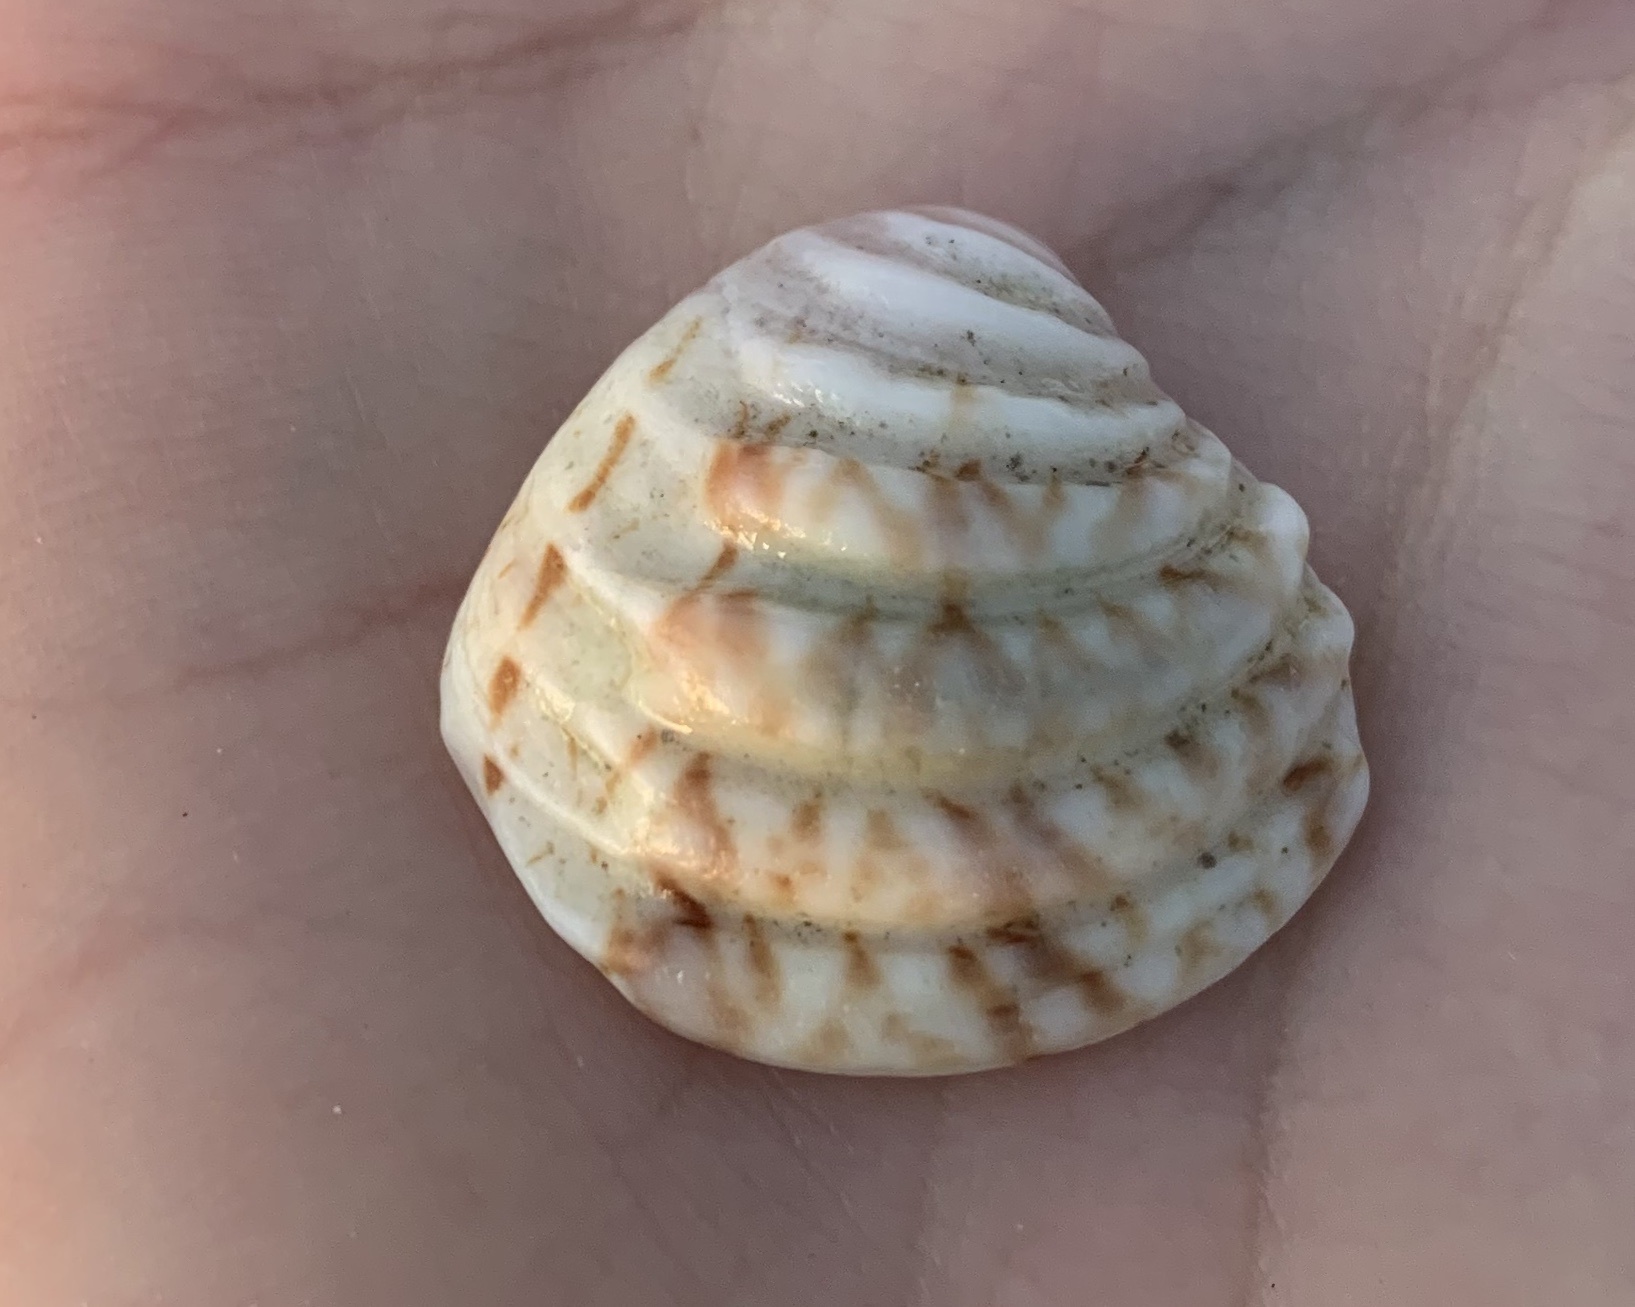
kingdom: Animalia
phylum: Mollusca
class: Bivalvia
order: Venerida
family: Veneridae
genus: Lirophora
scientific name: Lirophora paphia
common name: King venus
